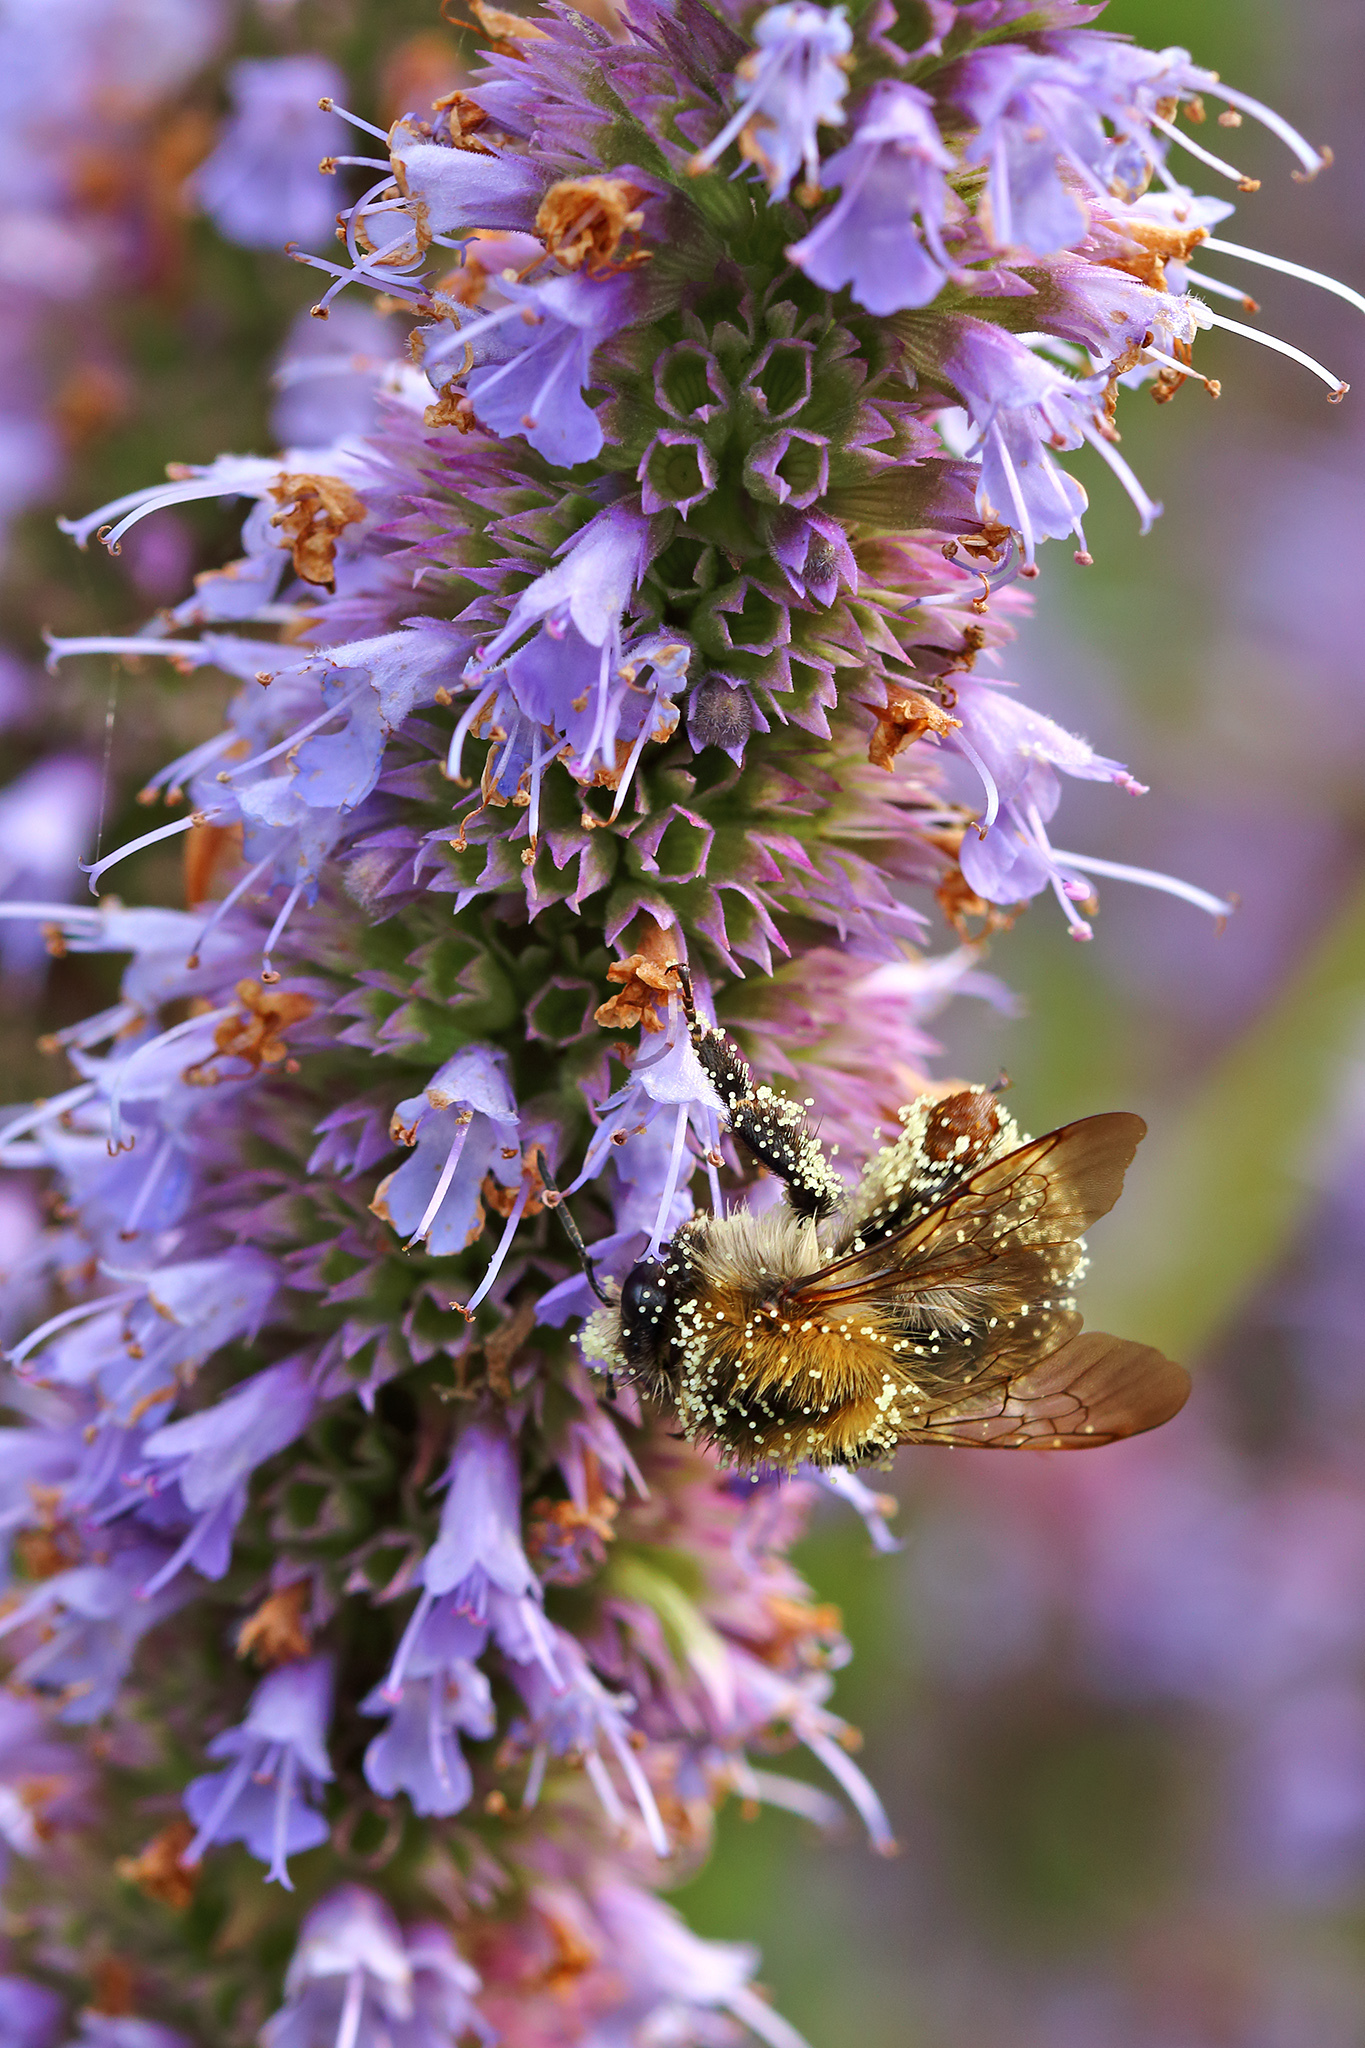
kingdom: Animalia
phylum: Arthropoda
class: Insecta
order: Hymenoptera
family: Apidae
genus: Bombus
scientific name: Bombus pascuorum
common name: Common carder bee
